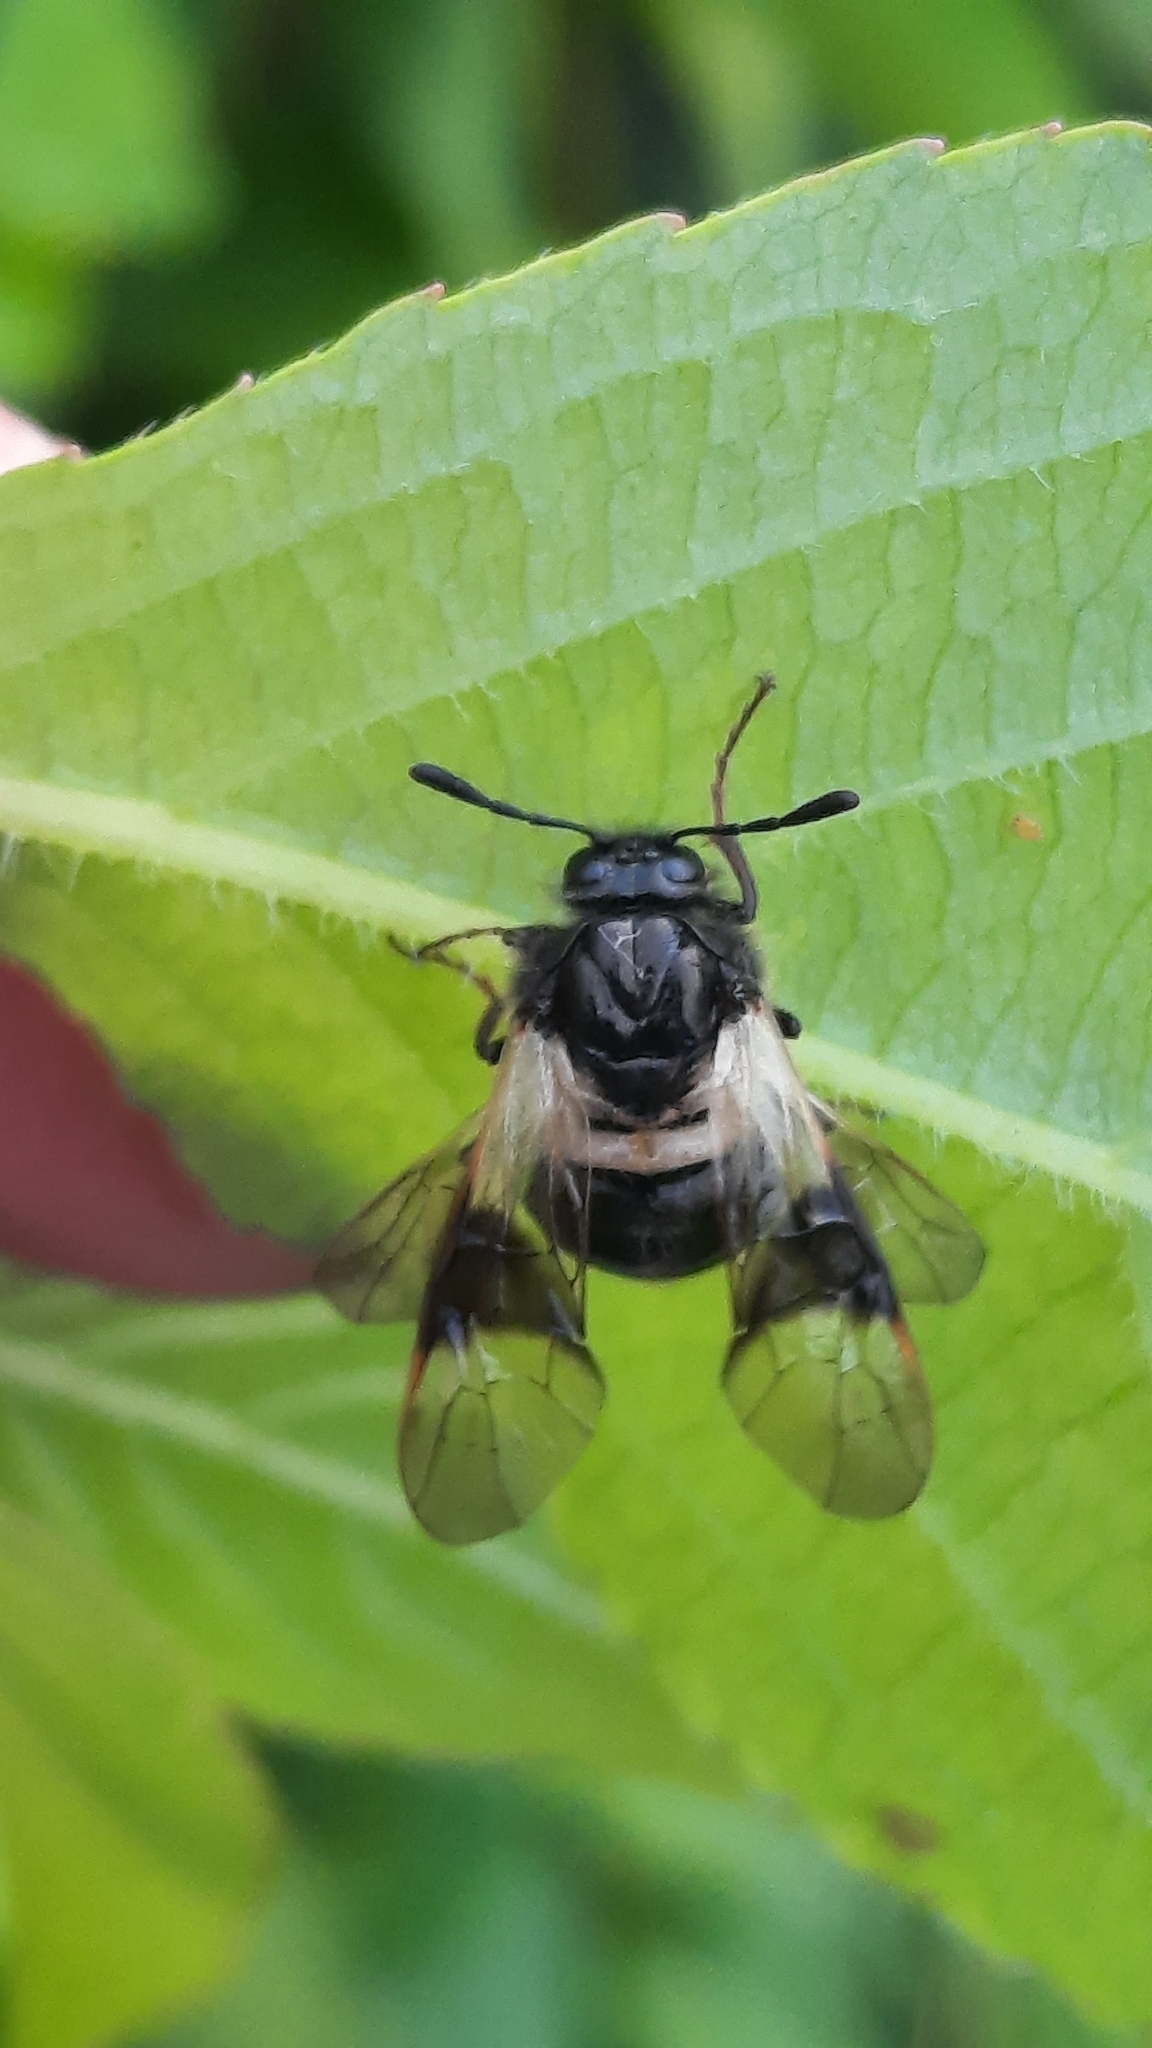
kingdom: Animalia
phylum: Arthropoda
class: Insecta
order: Hymenoptera
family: Cimbicidae
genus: Abia
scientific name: Abia fasciata
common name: Banded honeysuckle sawfly
